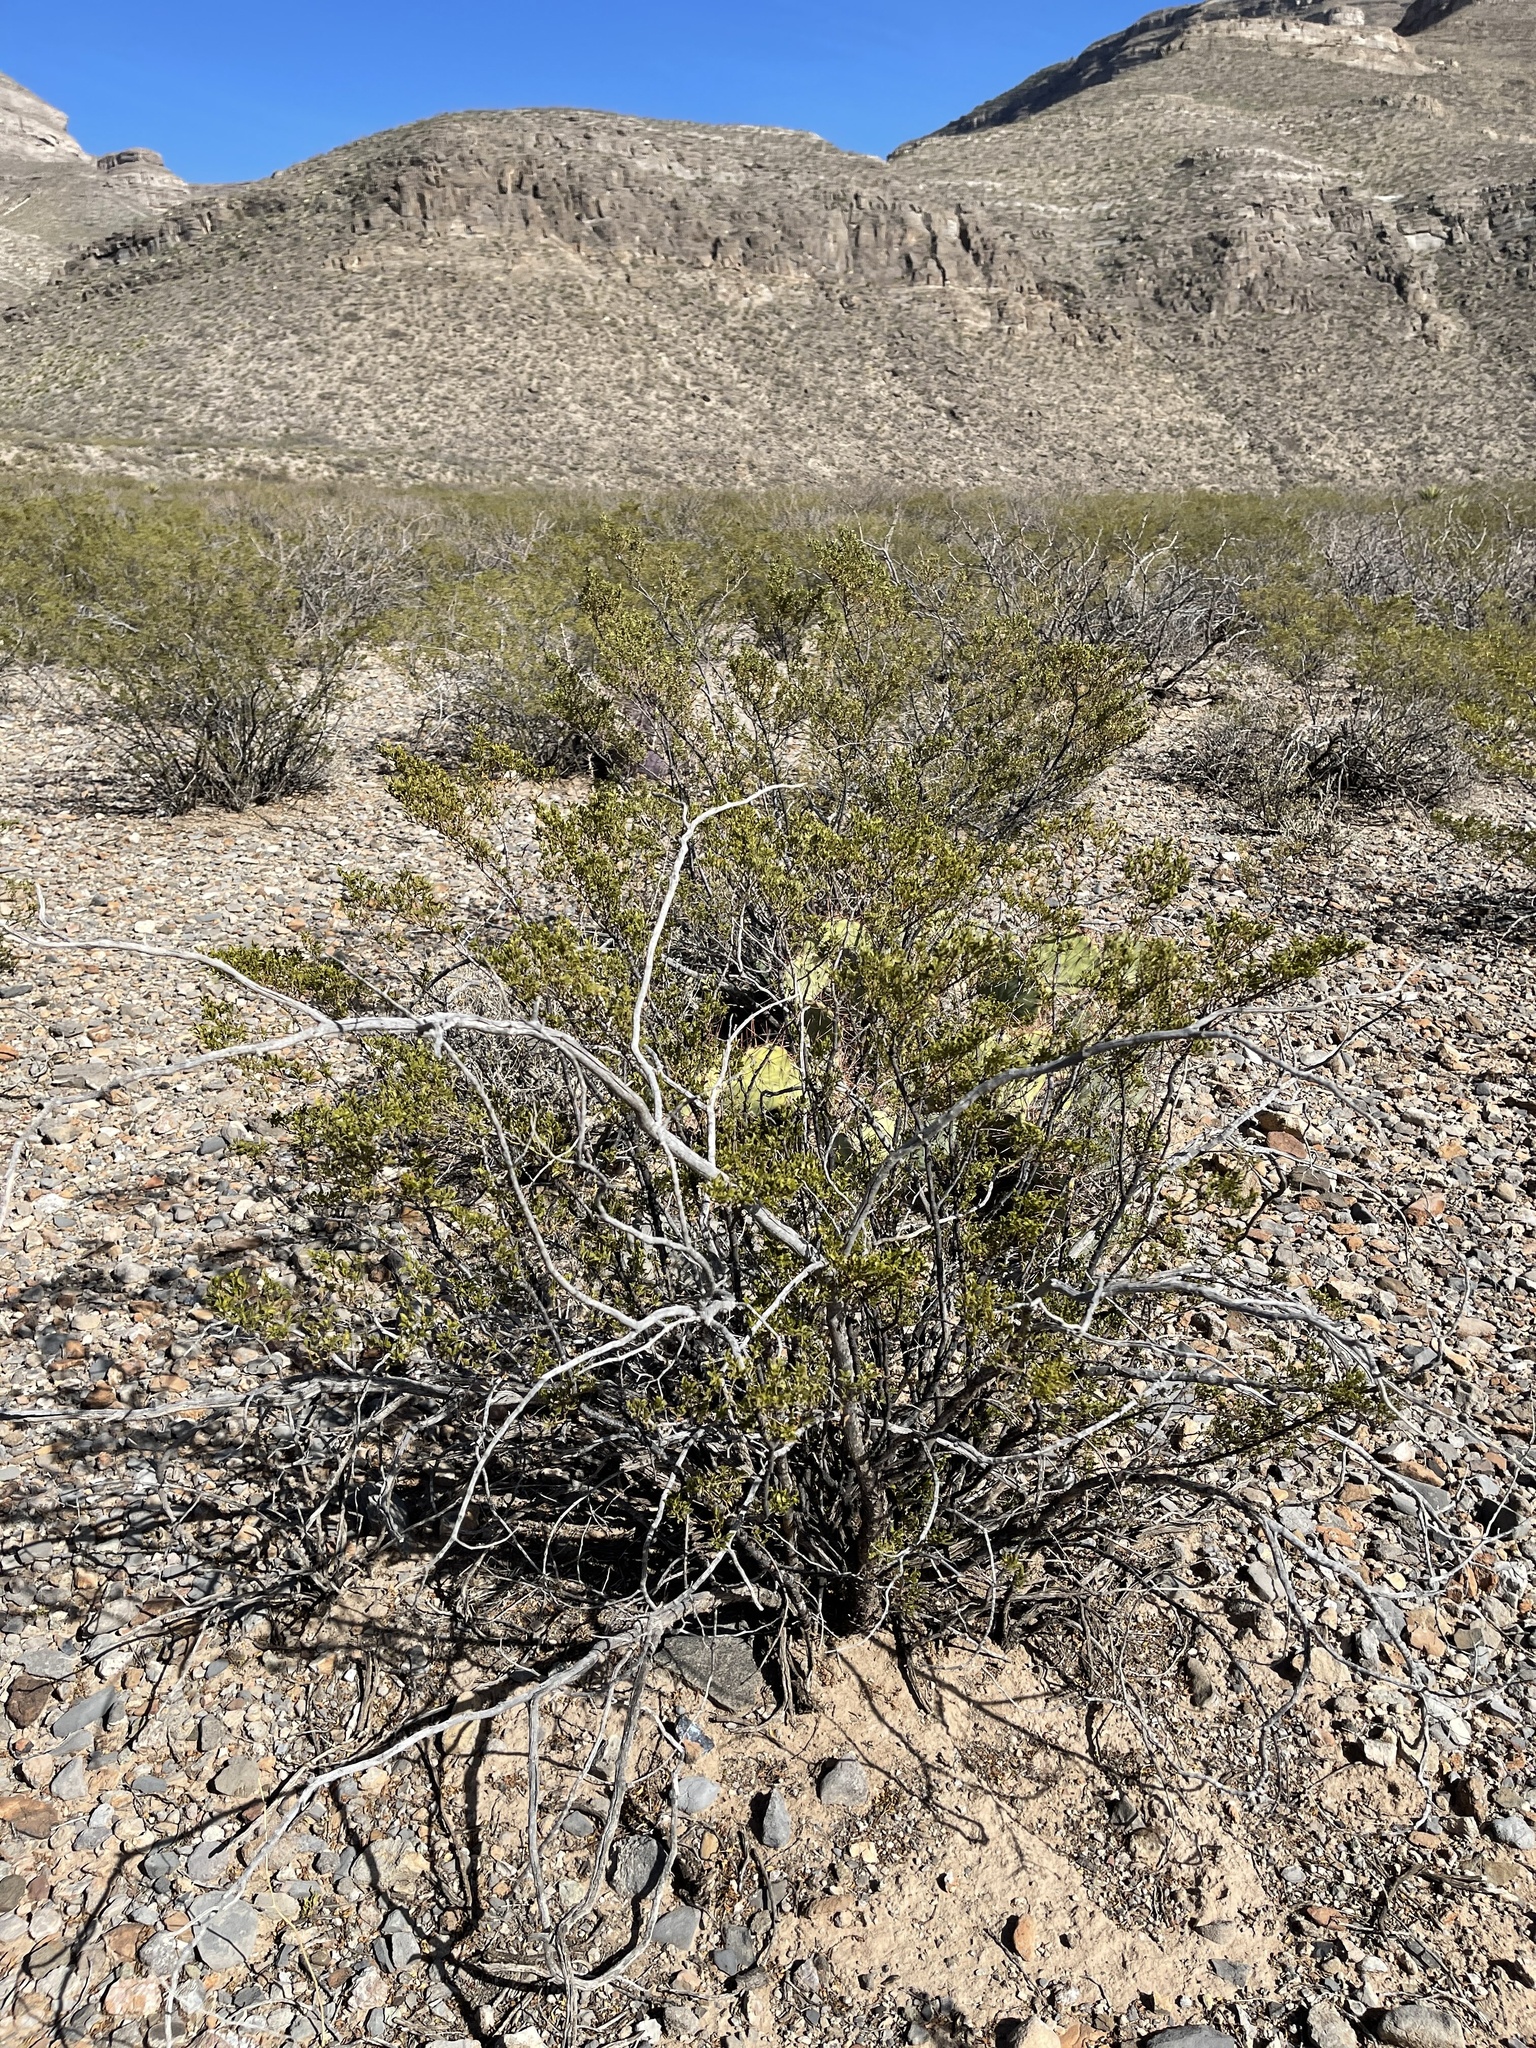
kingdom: Plantae
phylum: Tracheophyta
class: Magnoliopsida
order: Zygophyllales
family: Zygophyllaceae
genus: Larrea
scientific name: Larrea tridentata
